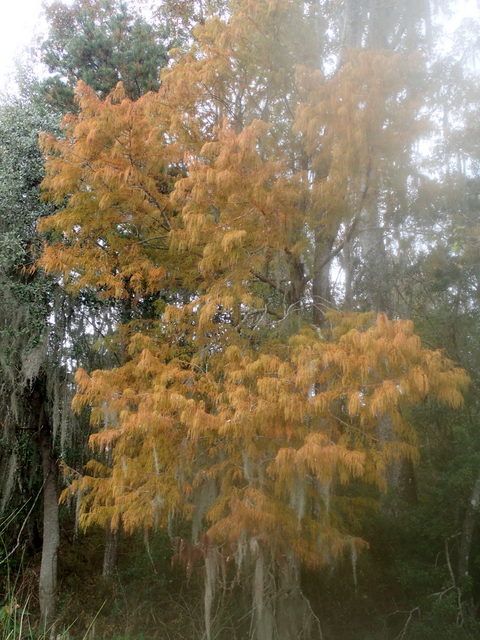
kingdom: Plantae
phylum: Tracheophyta
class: Pinopsida
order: Pinales
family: Cupressaceae
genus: Taxodium
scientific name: Taxodium distichum
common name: Bald cypress
